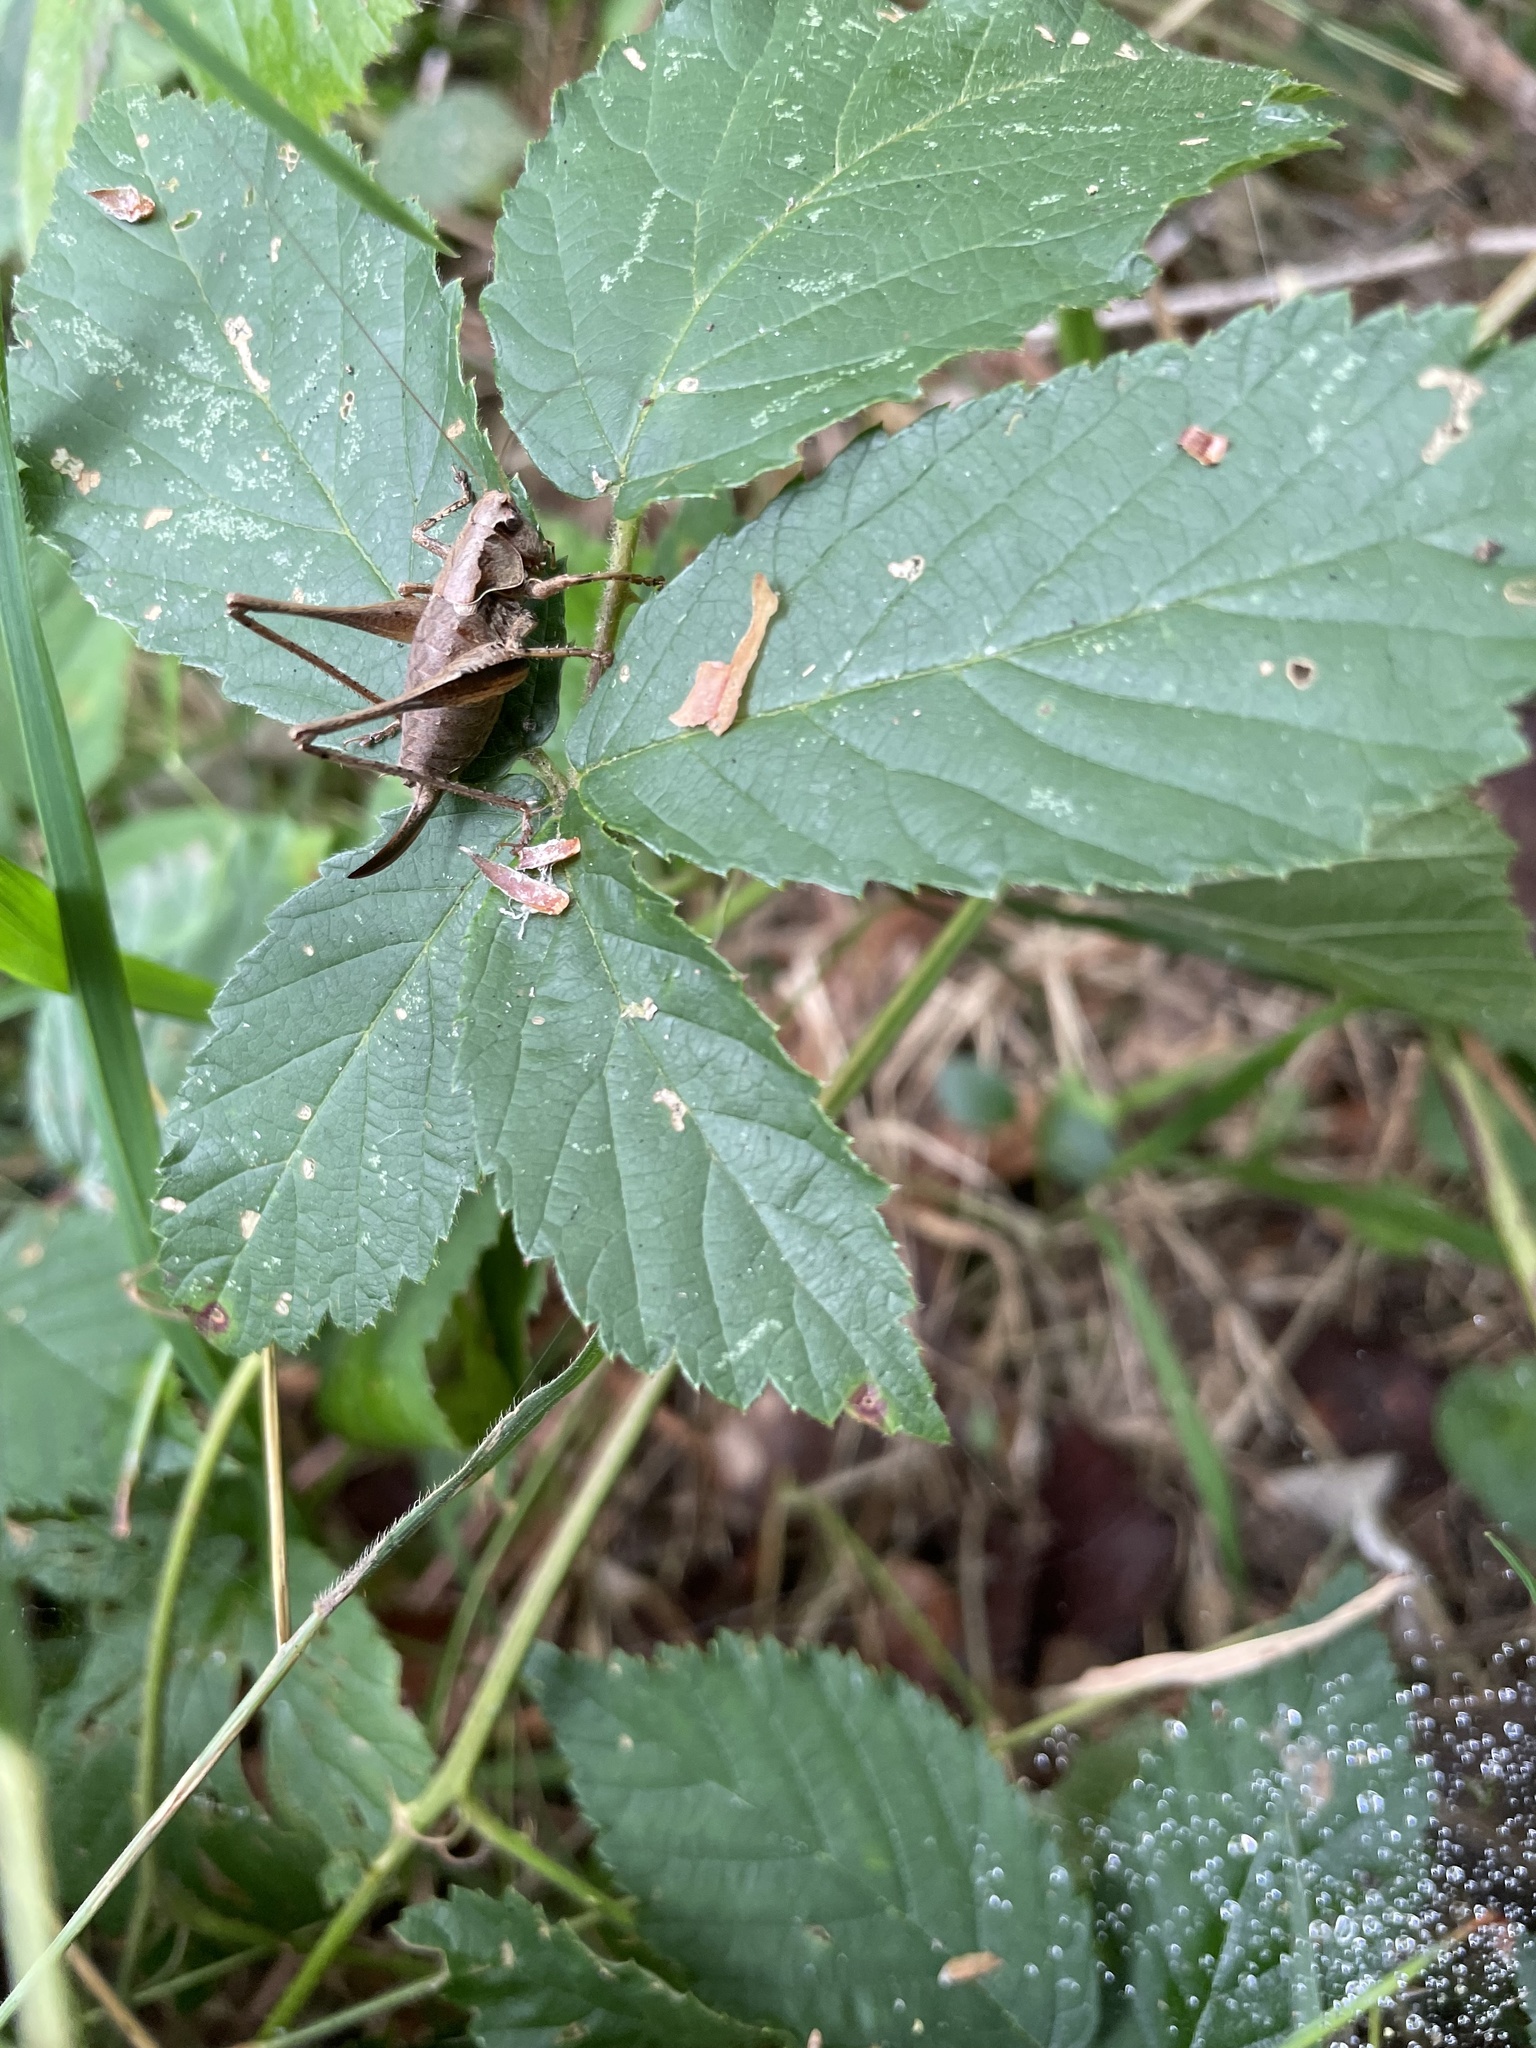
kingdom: Animalia
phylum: Arthropoda
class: Insecta
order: Orthoptera
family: Tettigoniidae
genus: Pholidoptera
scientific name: Pholidoptera griseoaptera
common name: Dark bush-cricket
